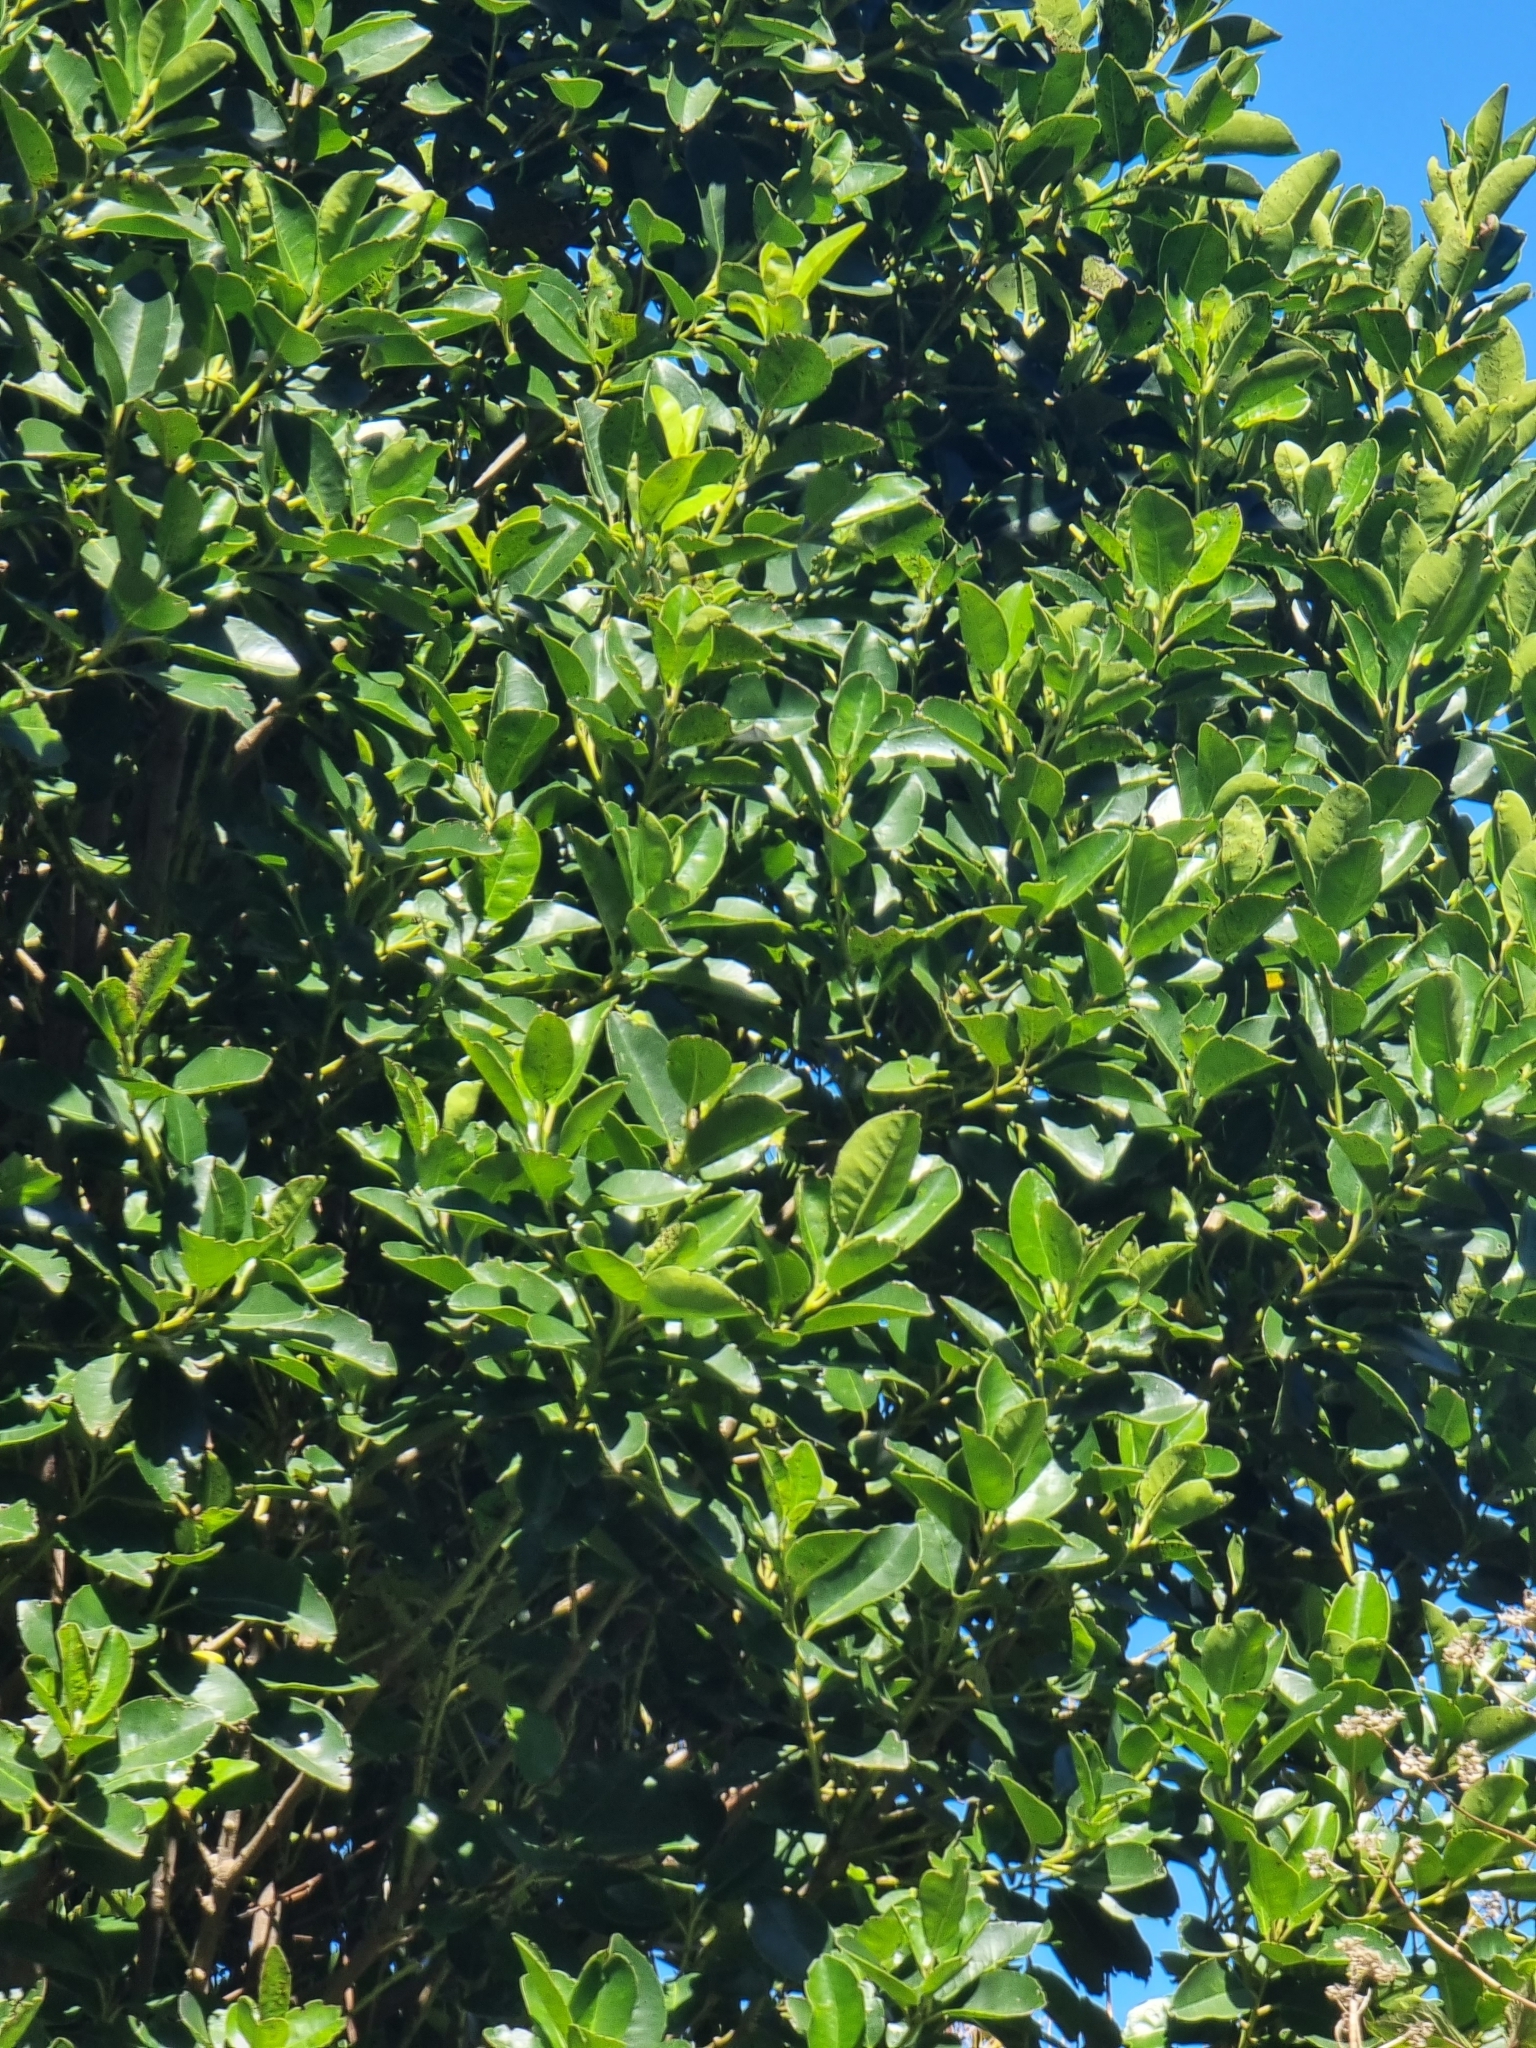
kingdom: Plantae
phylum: Tracheophyta
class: Magnoliopsida
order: Aquifoliales
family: Aquifoliaceae
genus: Ilex
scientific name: Ilex canariensis
